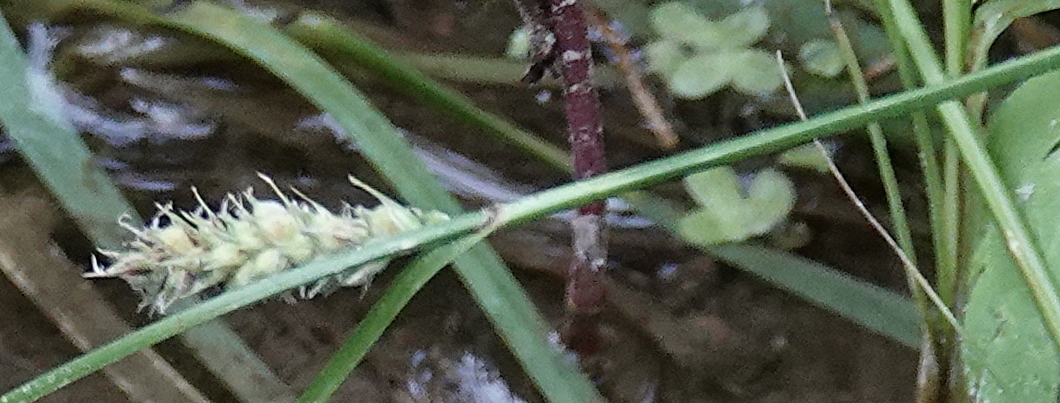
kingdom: Plantae
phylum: Tracheophyta
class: Liliopsida
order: Poales
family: Cyperaceae
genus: Carex
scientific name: Carex pellita
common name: Woolly sedge
